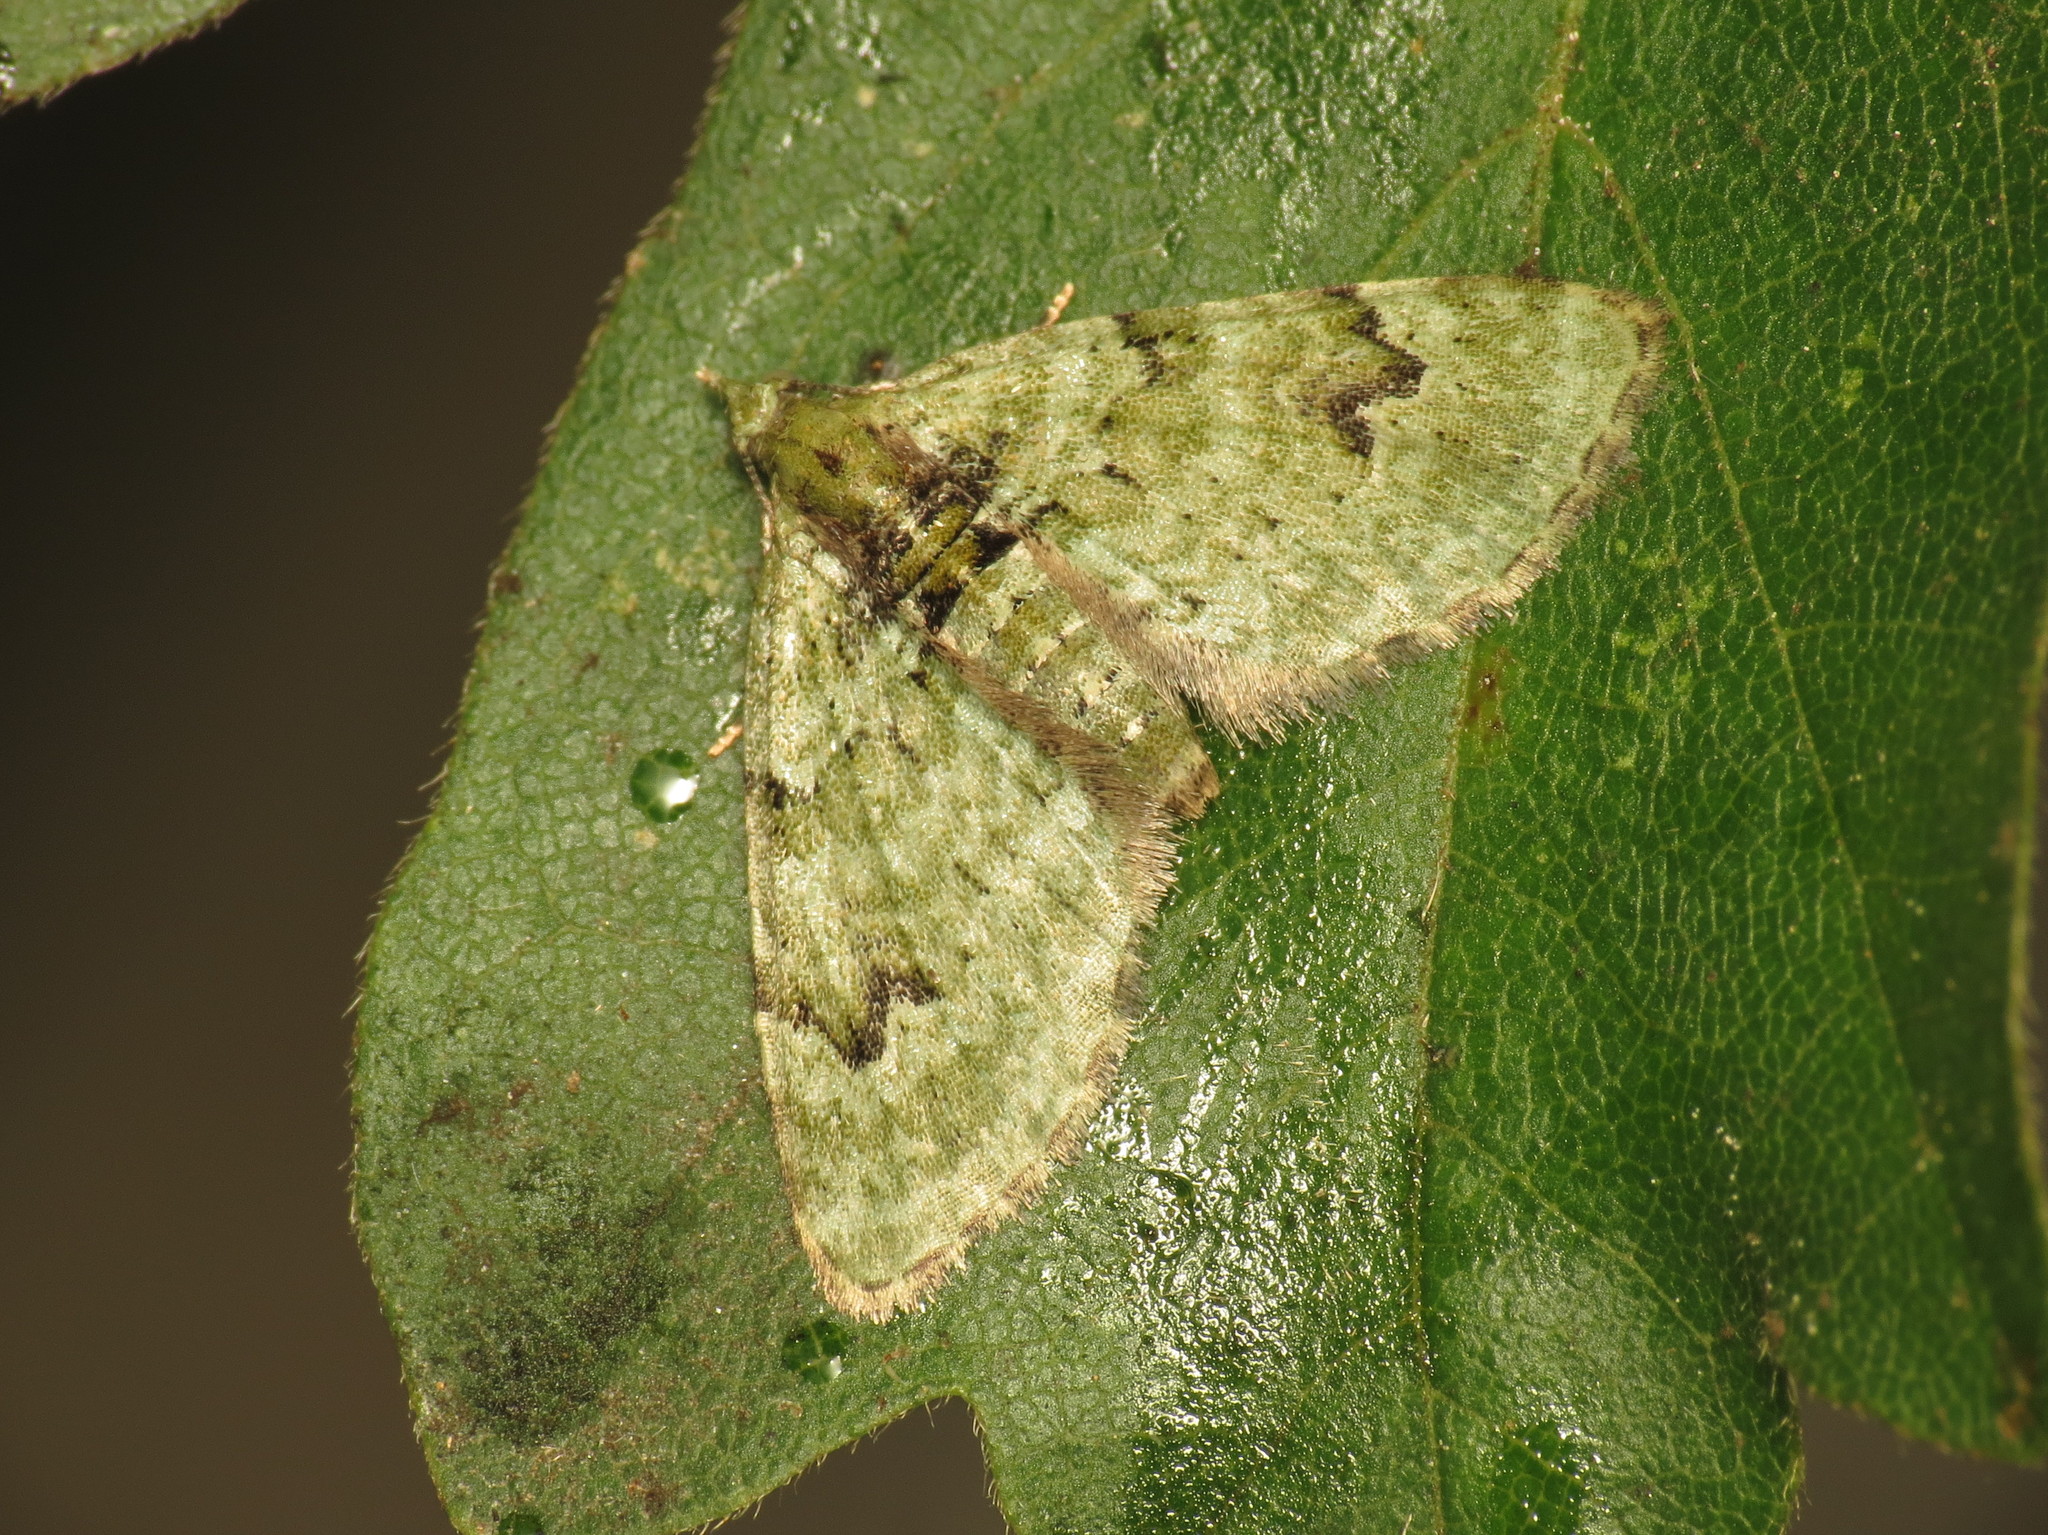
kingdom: Animalia
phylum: Arthropoda
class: Insecta
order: Lepidoptera
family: Geometridae
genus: Chloroclystis
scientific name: Chloroclystis v-ata
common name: V-pug
